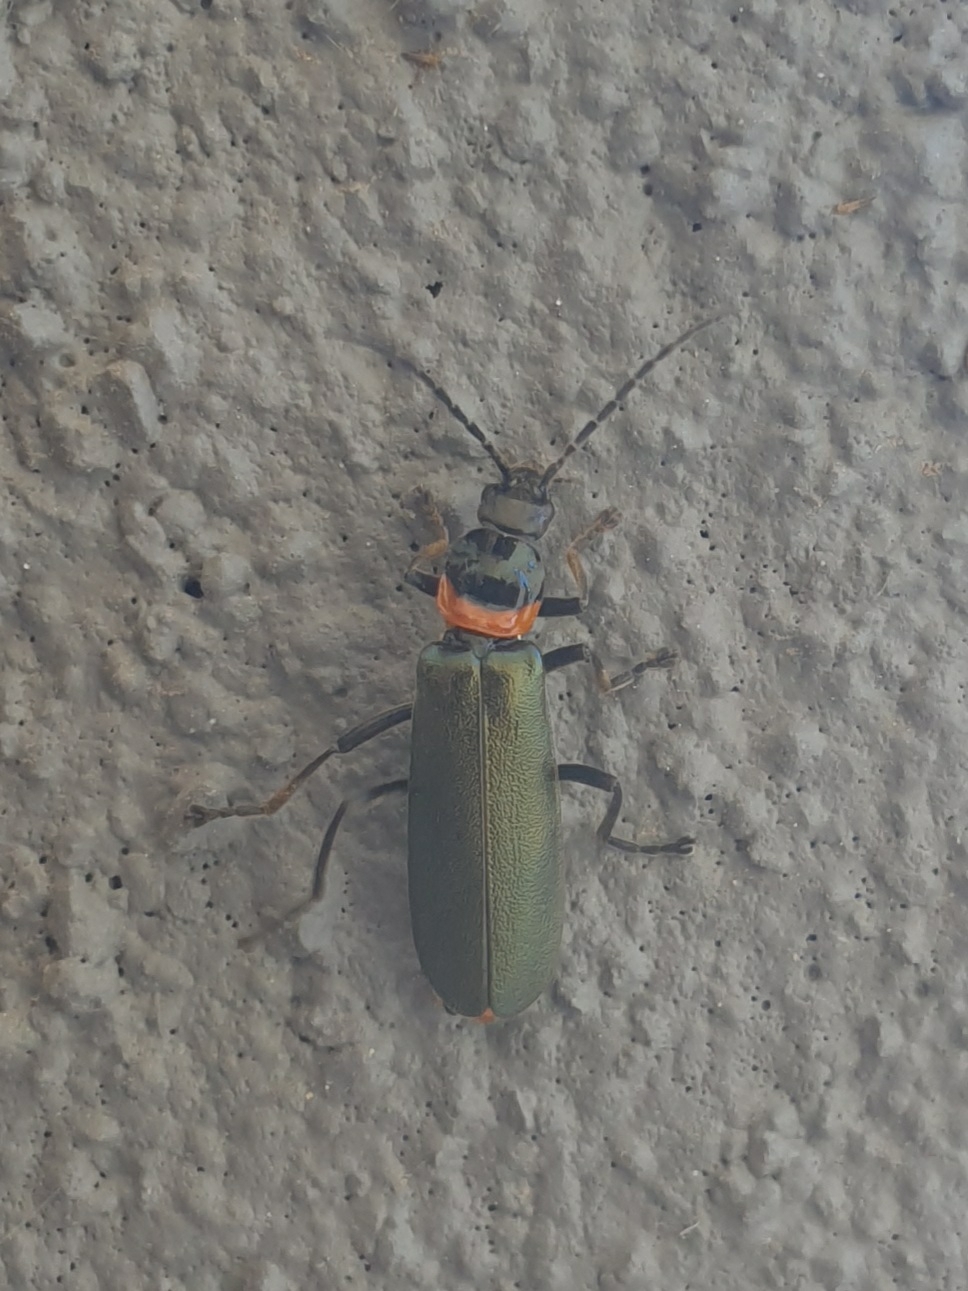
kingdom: Animalia
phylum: Arthropoda
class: Insecta
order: Coleoptera
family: Cantharidae
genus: Chauliognathus
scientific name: Chauliognathus
